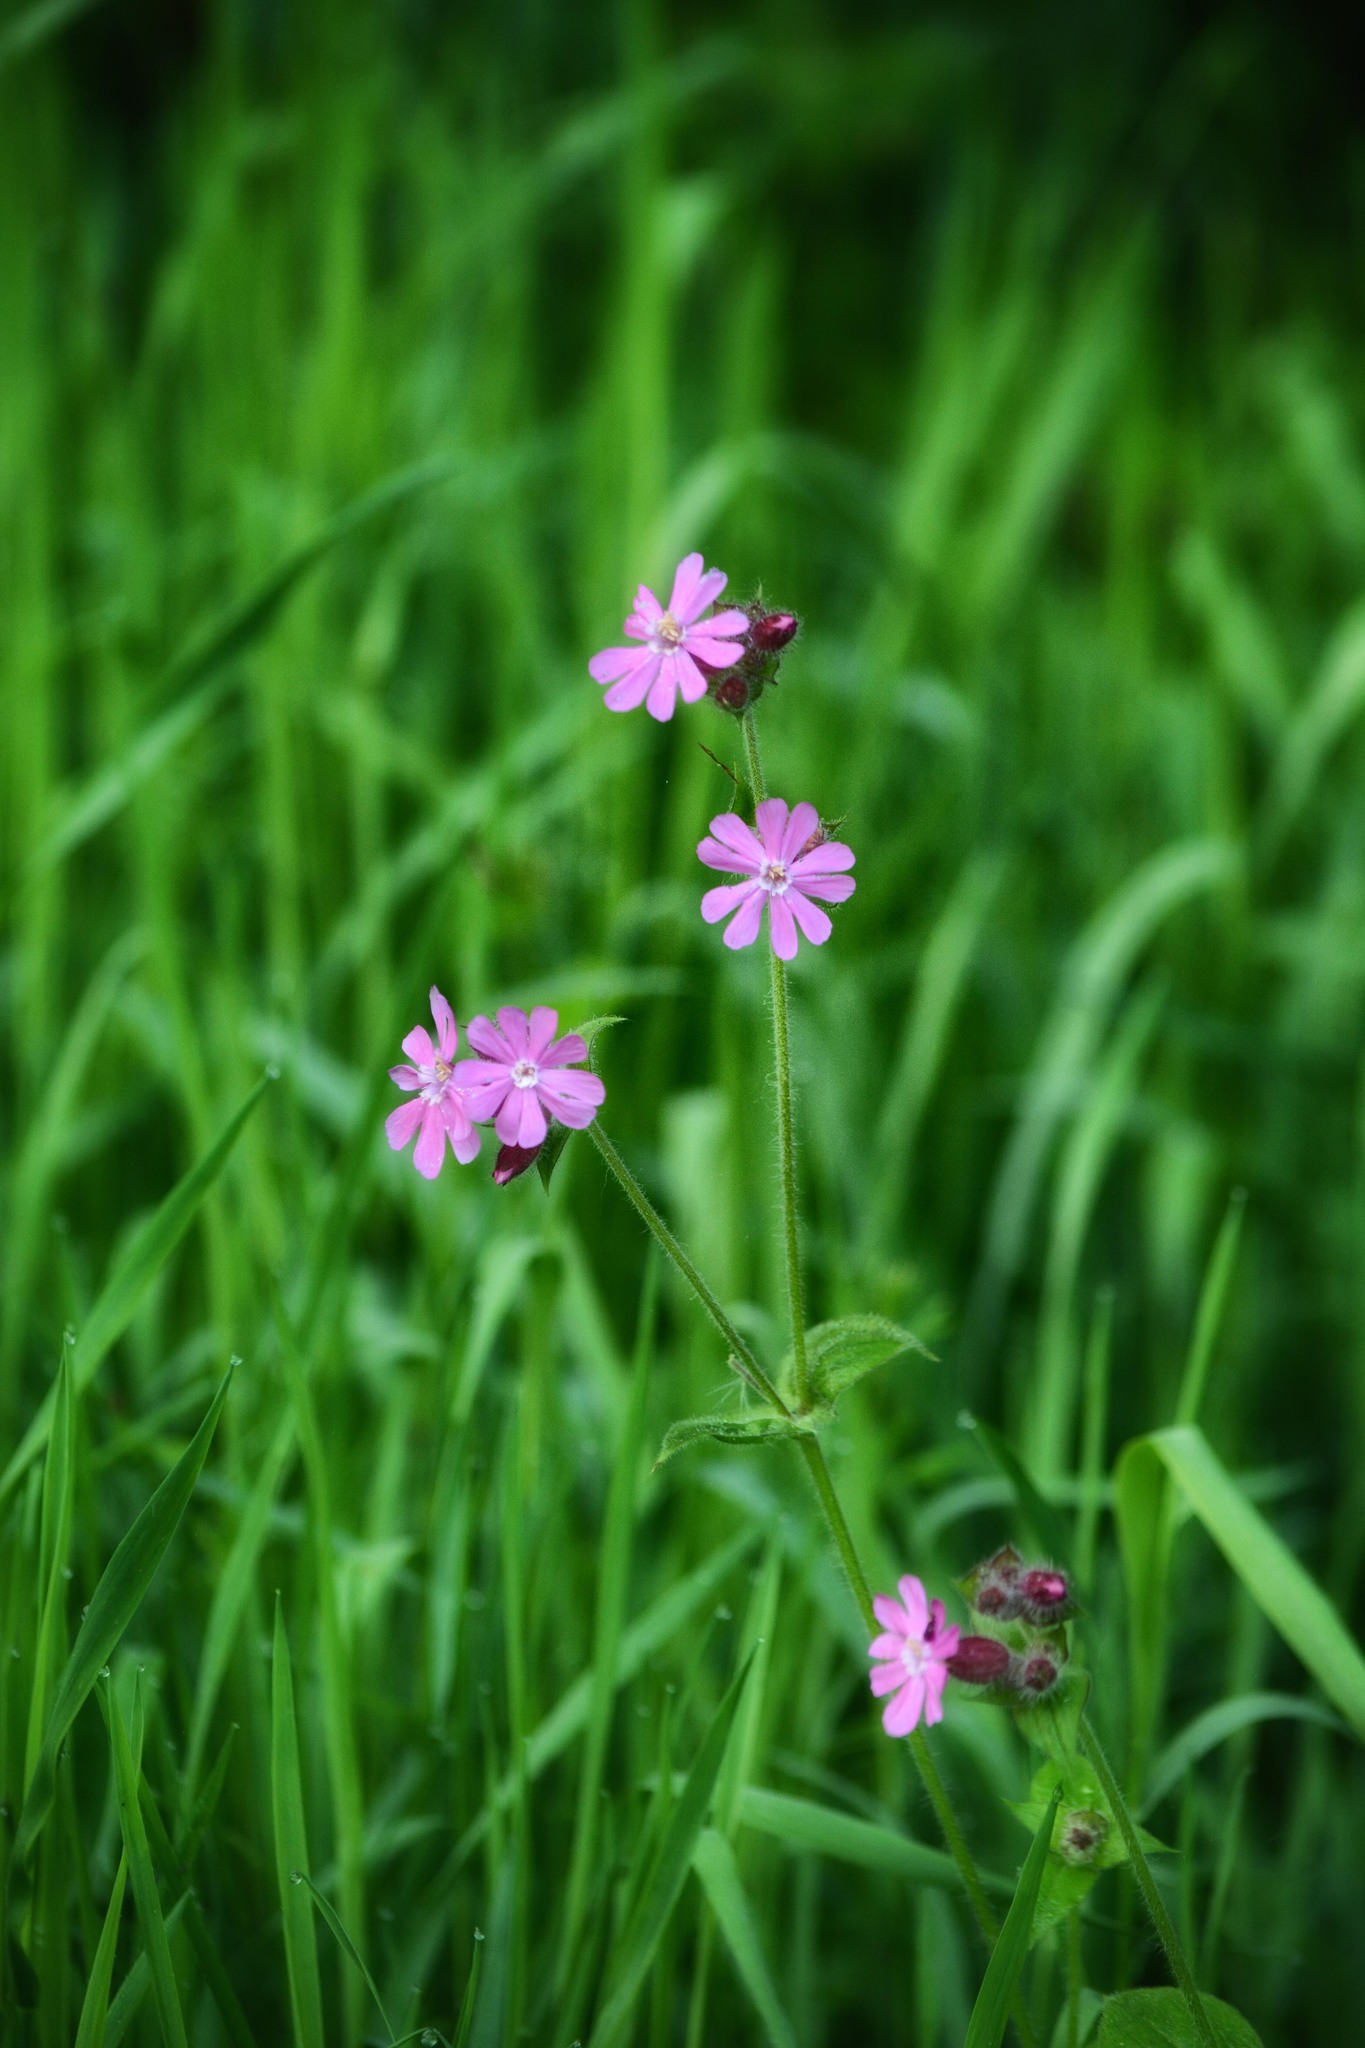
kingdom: Plantae
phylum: Tracheophyta
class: Magnoliopsida
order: Caryophyllales
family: Caryophyllaceae
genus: Silene
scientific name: Silene dioica
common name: Red campion
